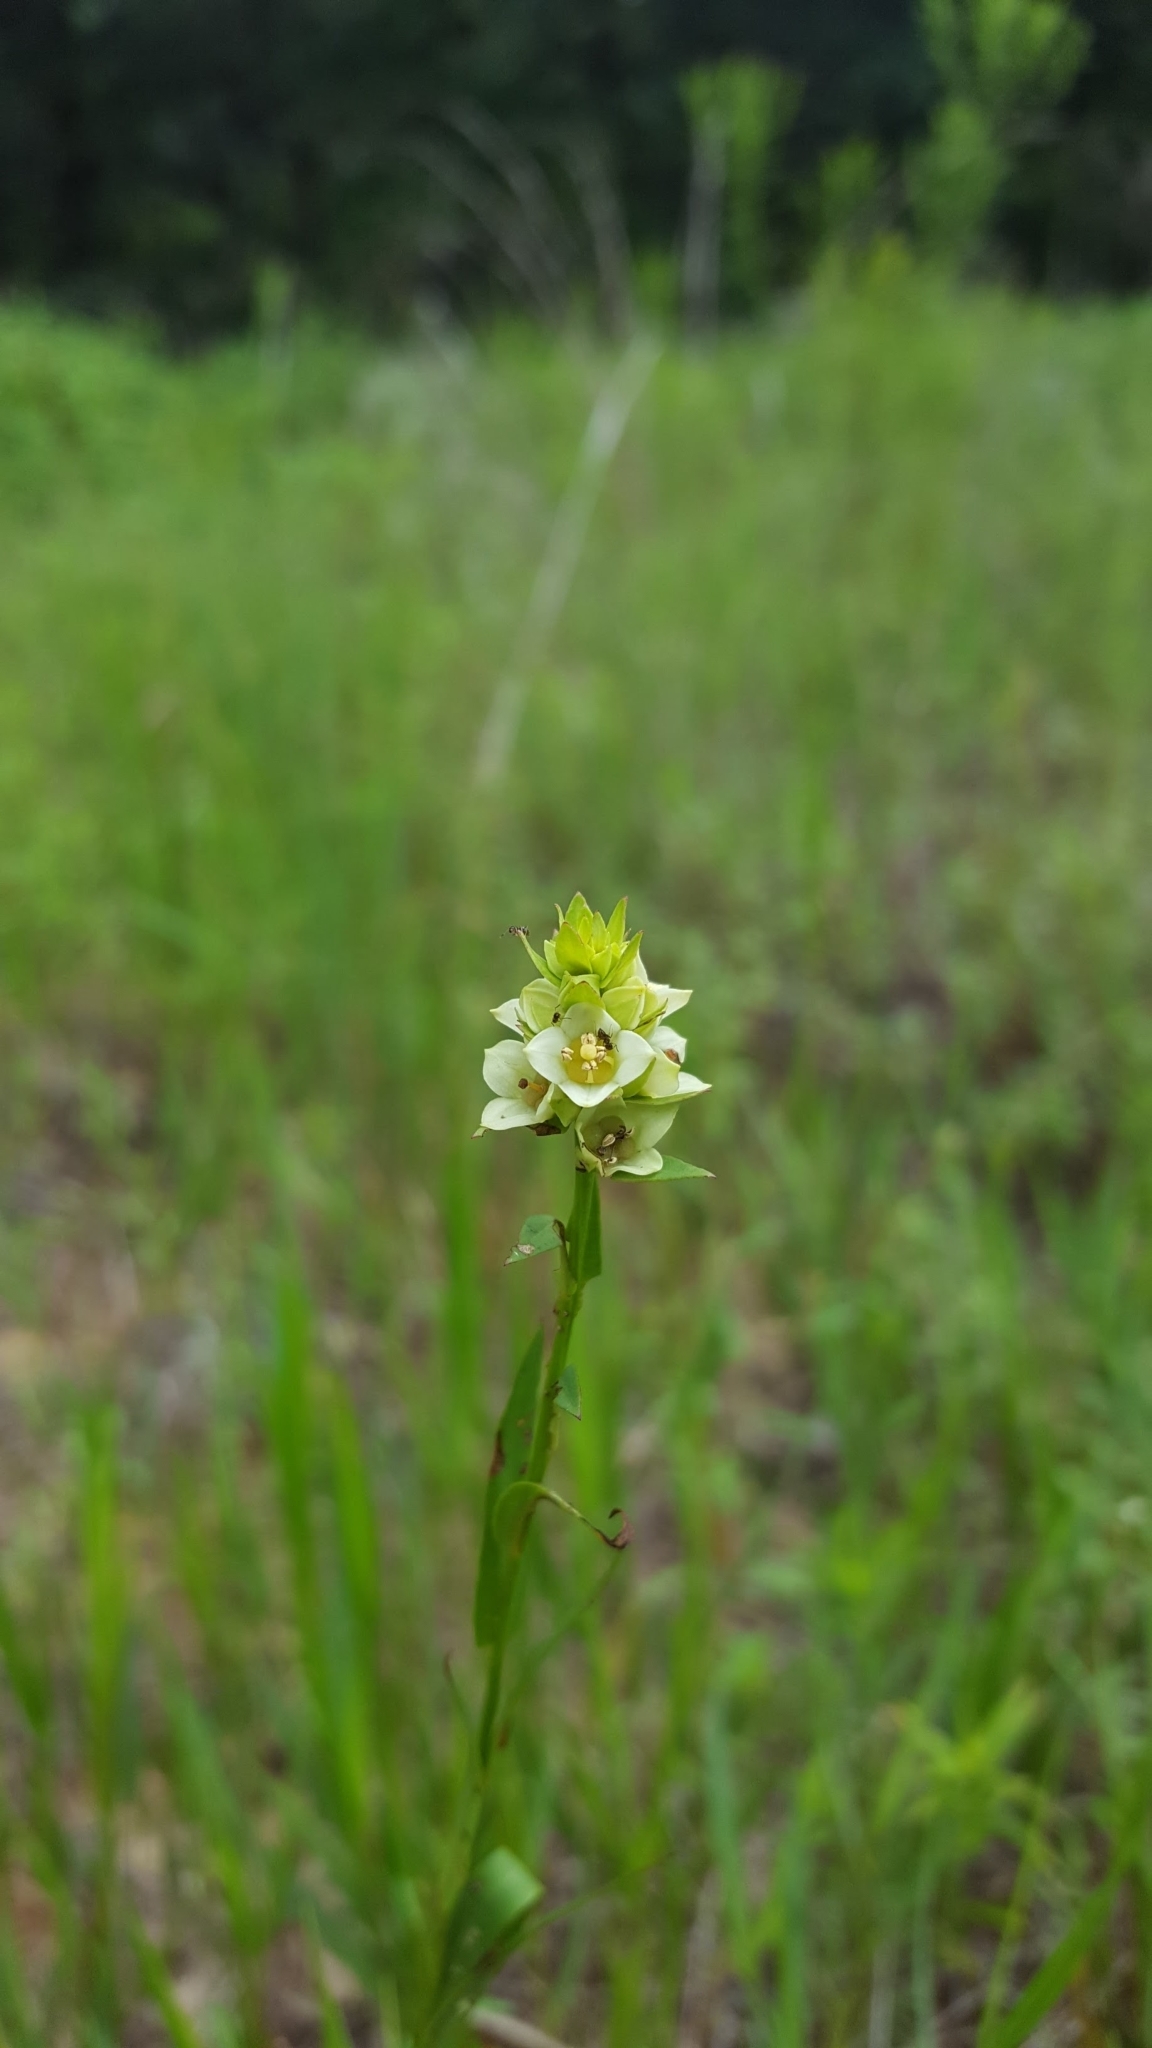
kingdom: Plantae
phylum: Tracheophyta
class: Magnoliopsida
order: Myrtales
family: Onagraceae
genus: Ludwigia
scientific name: Ludwigia suffruticosa
